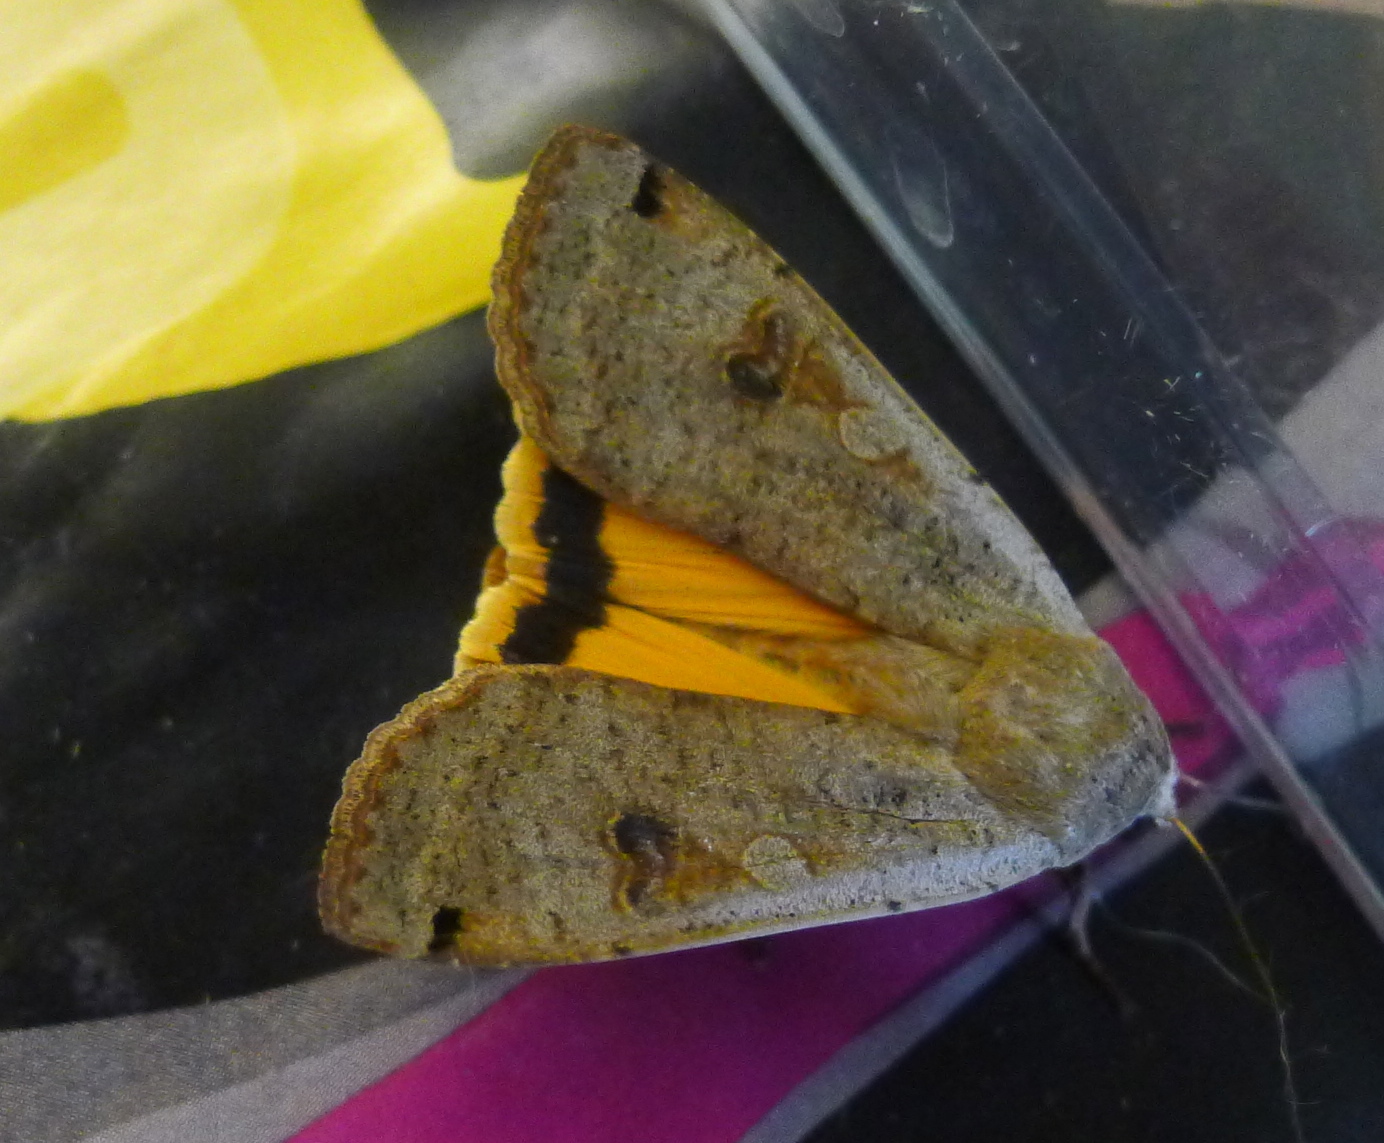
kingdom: Animalia
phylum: Arthropoda
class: Insecta
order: Lepidoptera
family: Noctuidae
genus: Noctua
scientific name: Noctua pronuba
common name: Large yellow underwing
